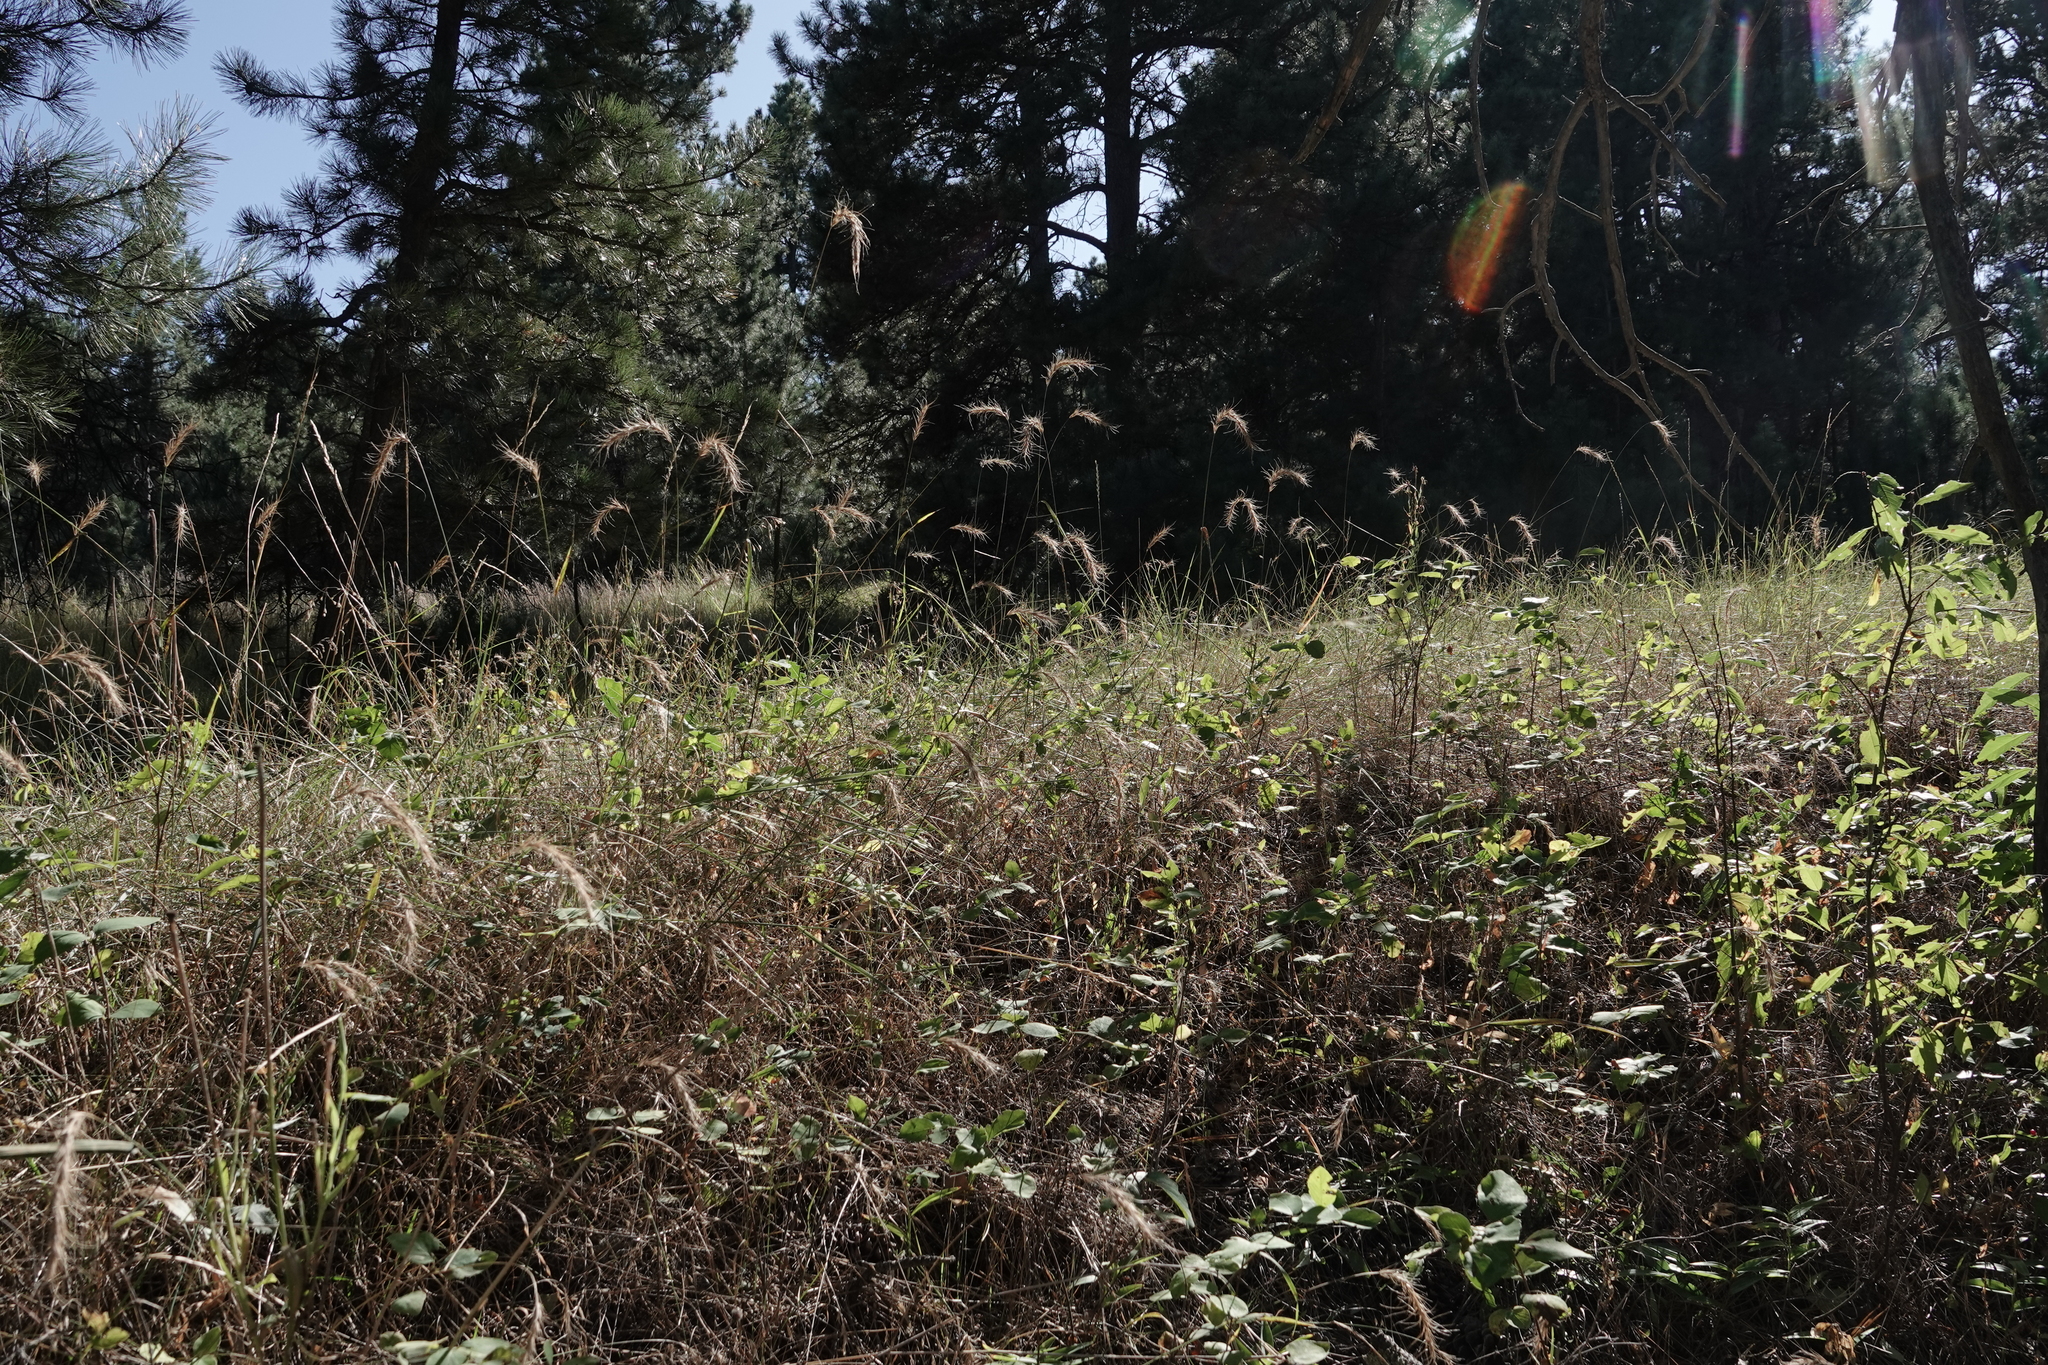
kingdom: Plantae
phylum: Tracheophyta
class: Liliopsida
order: Poales
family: Poaceae
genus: Elymus
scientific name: Elymus canadensis
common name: Canada wild rye
